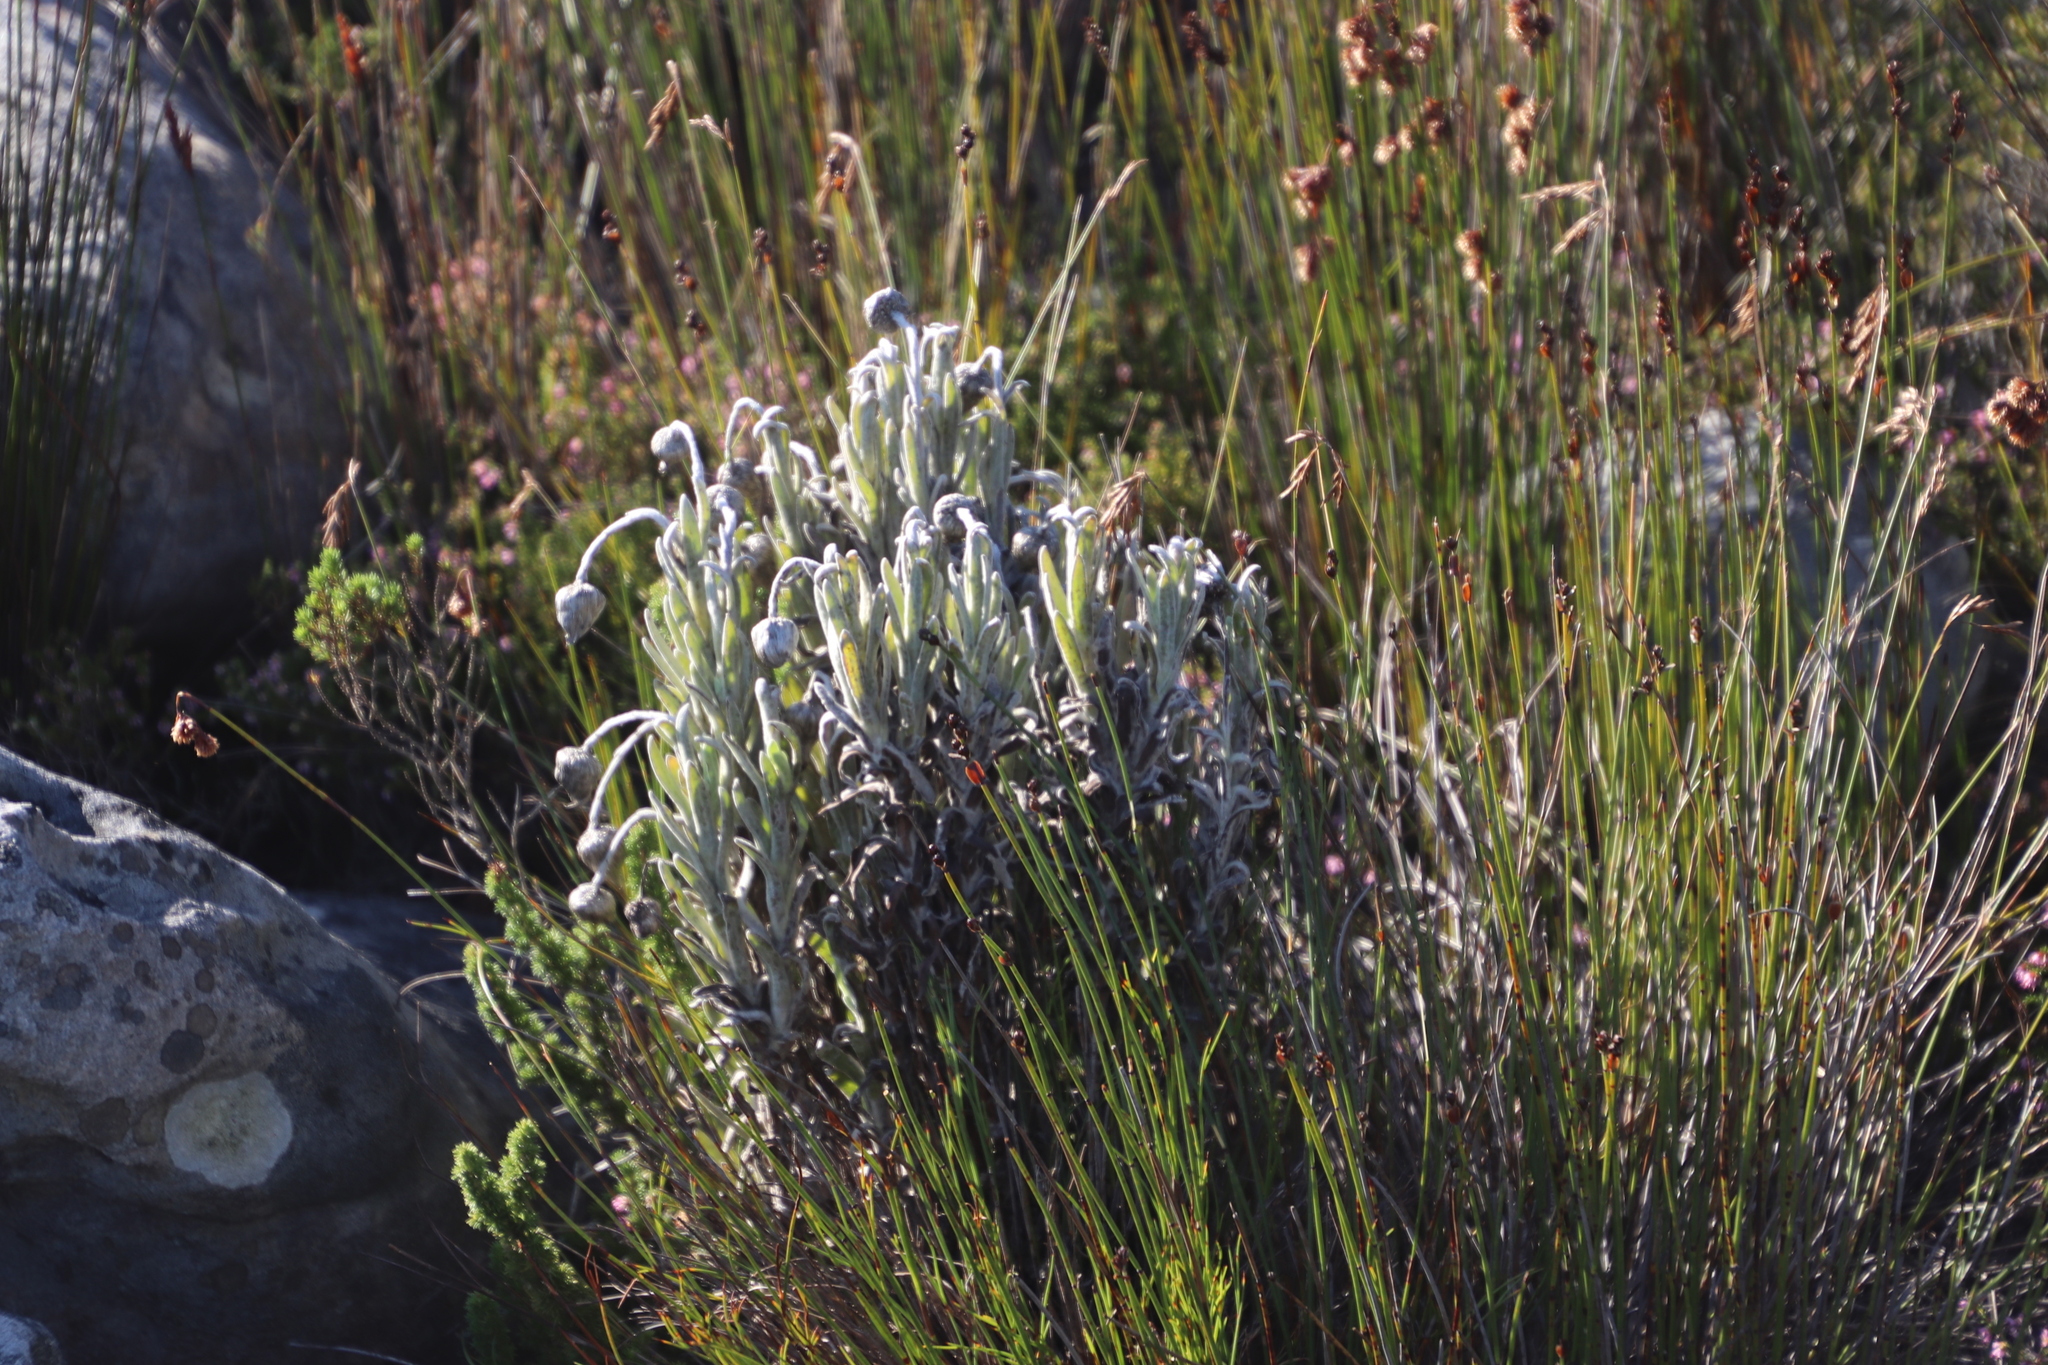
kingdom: Plantae
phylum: Tracheophyta
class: Magnoliopsida
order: Asterales
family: Asteraceae
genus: Syncarpha
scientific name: Syncarpha vestita
